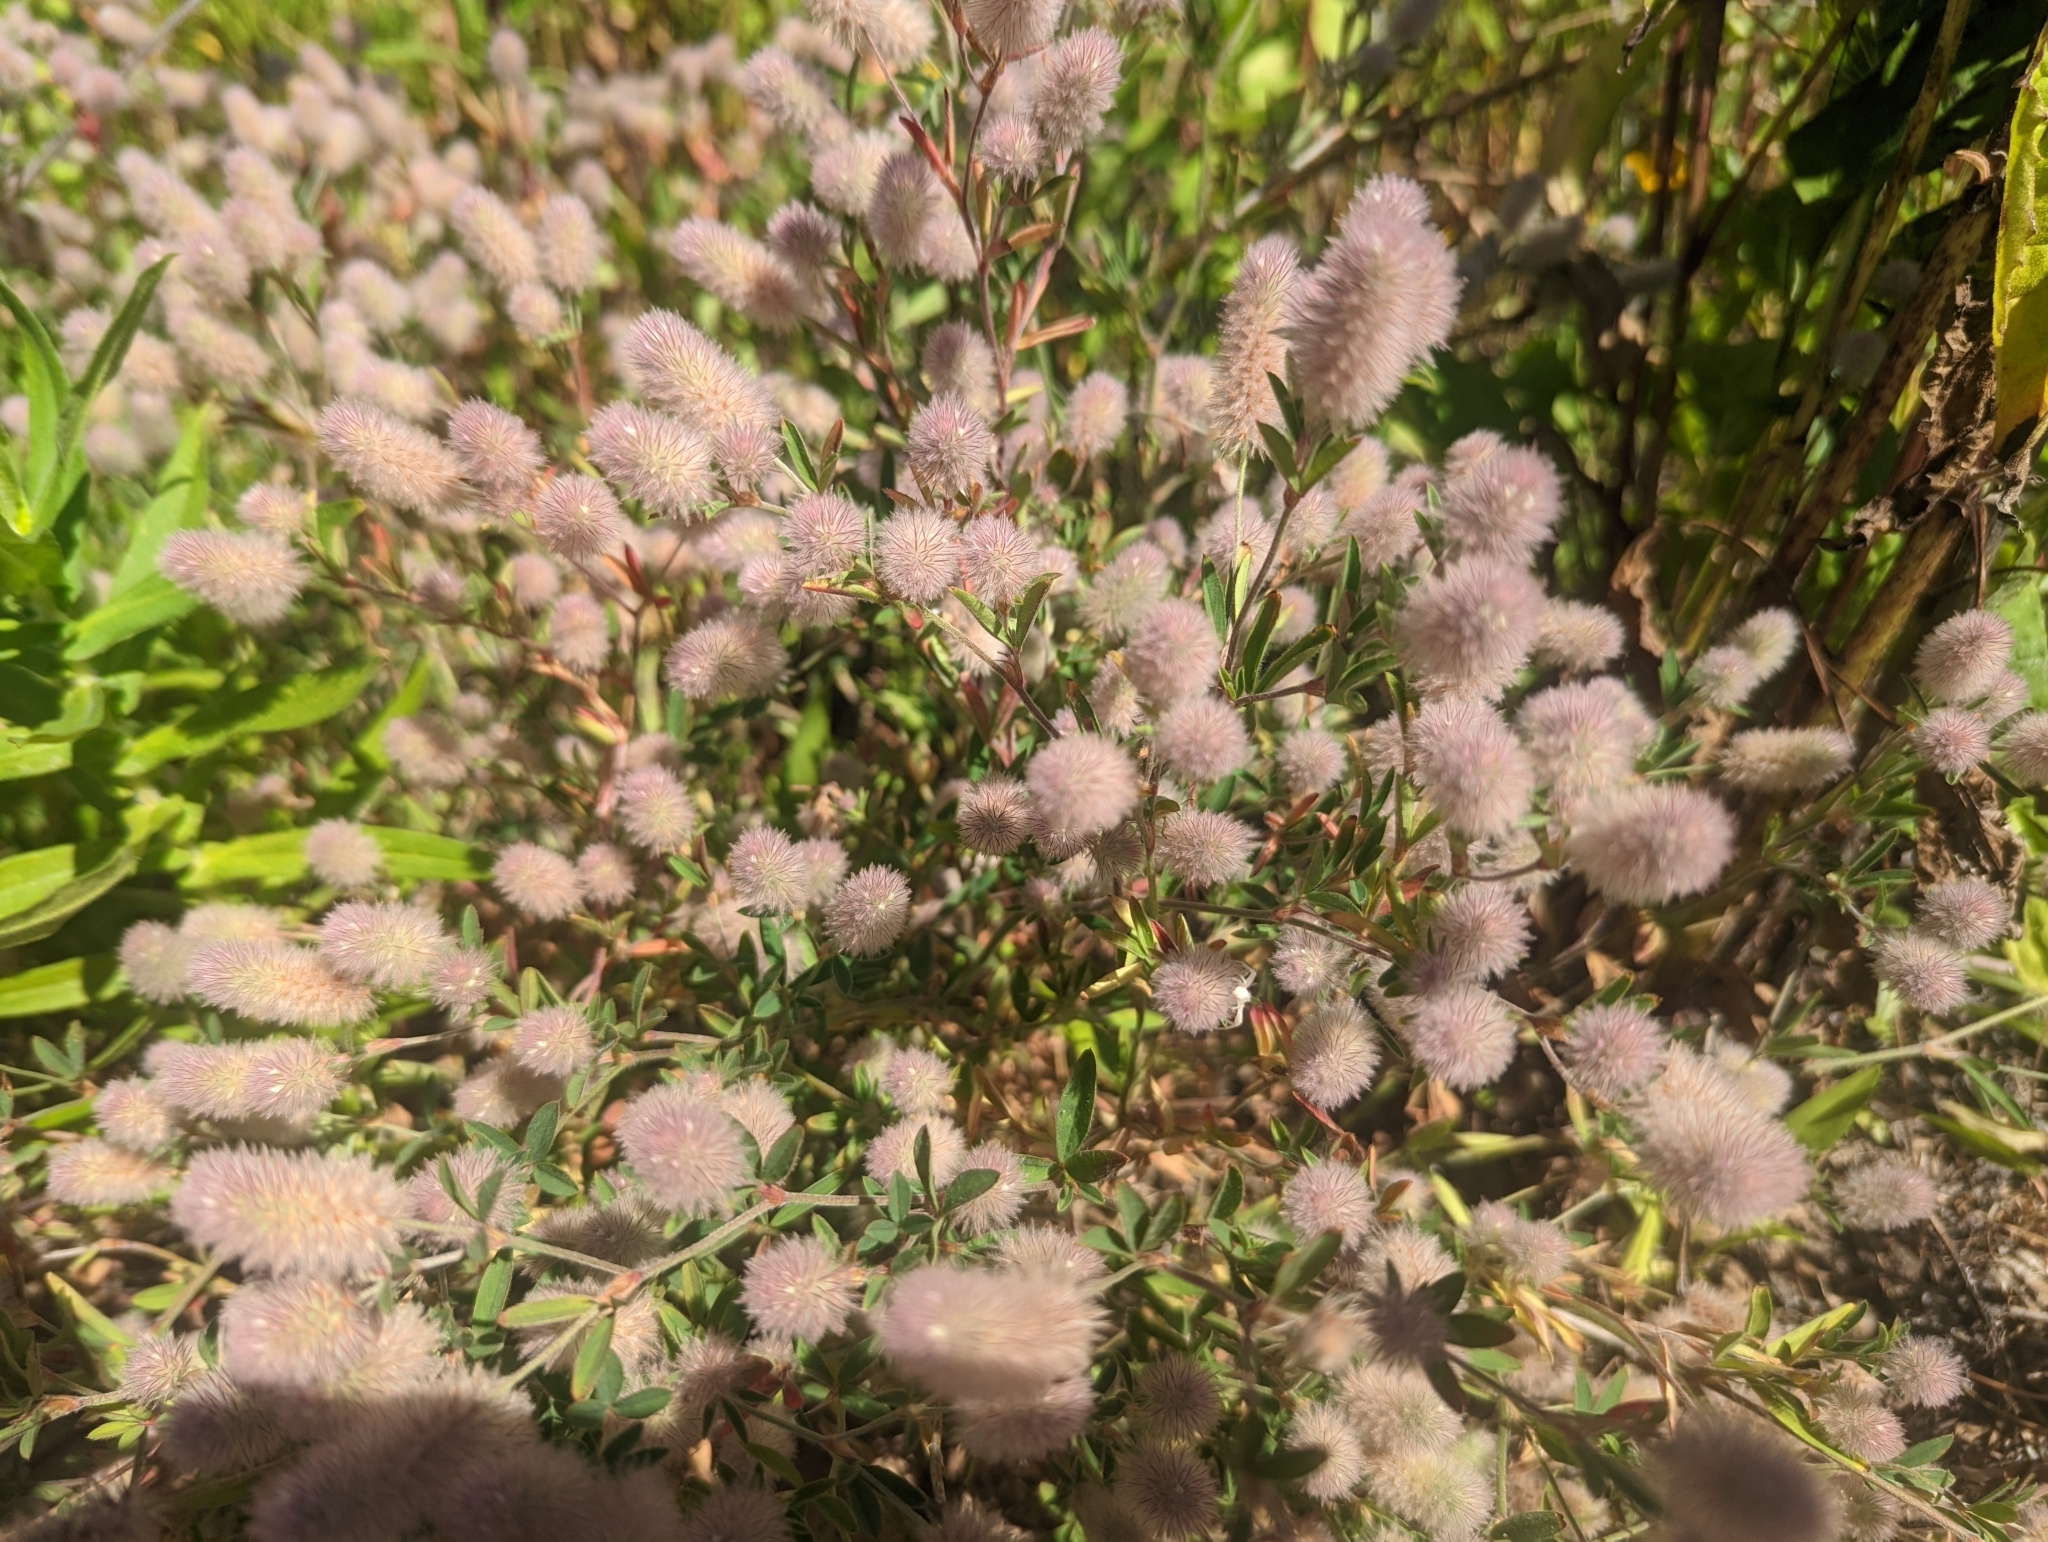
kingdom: Plantae
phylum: Tracheophyta
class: Magnoliopsida
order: Fabales
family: Fabaceae
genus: Trifolium
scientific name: Trifolium arvense
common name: Hare's-foot clover
